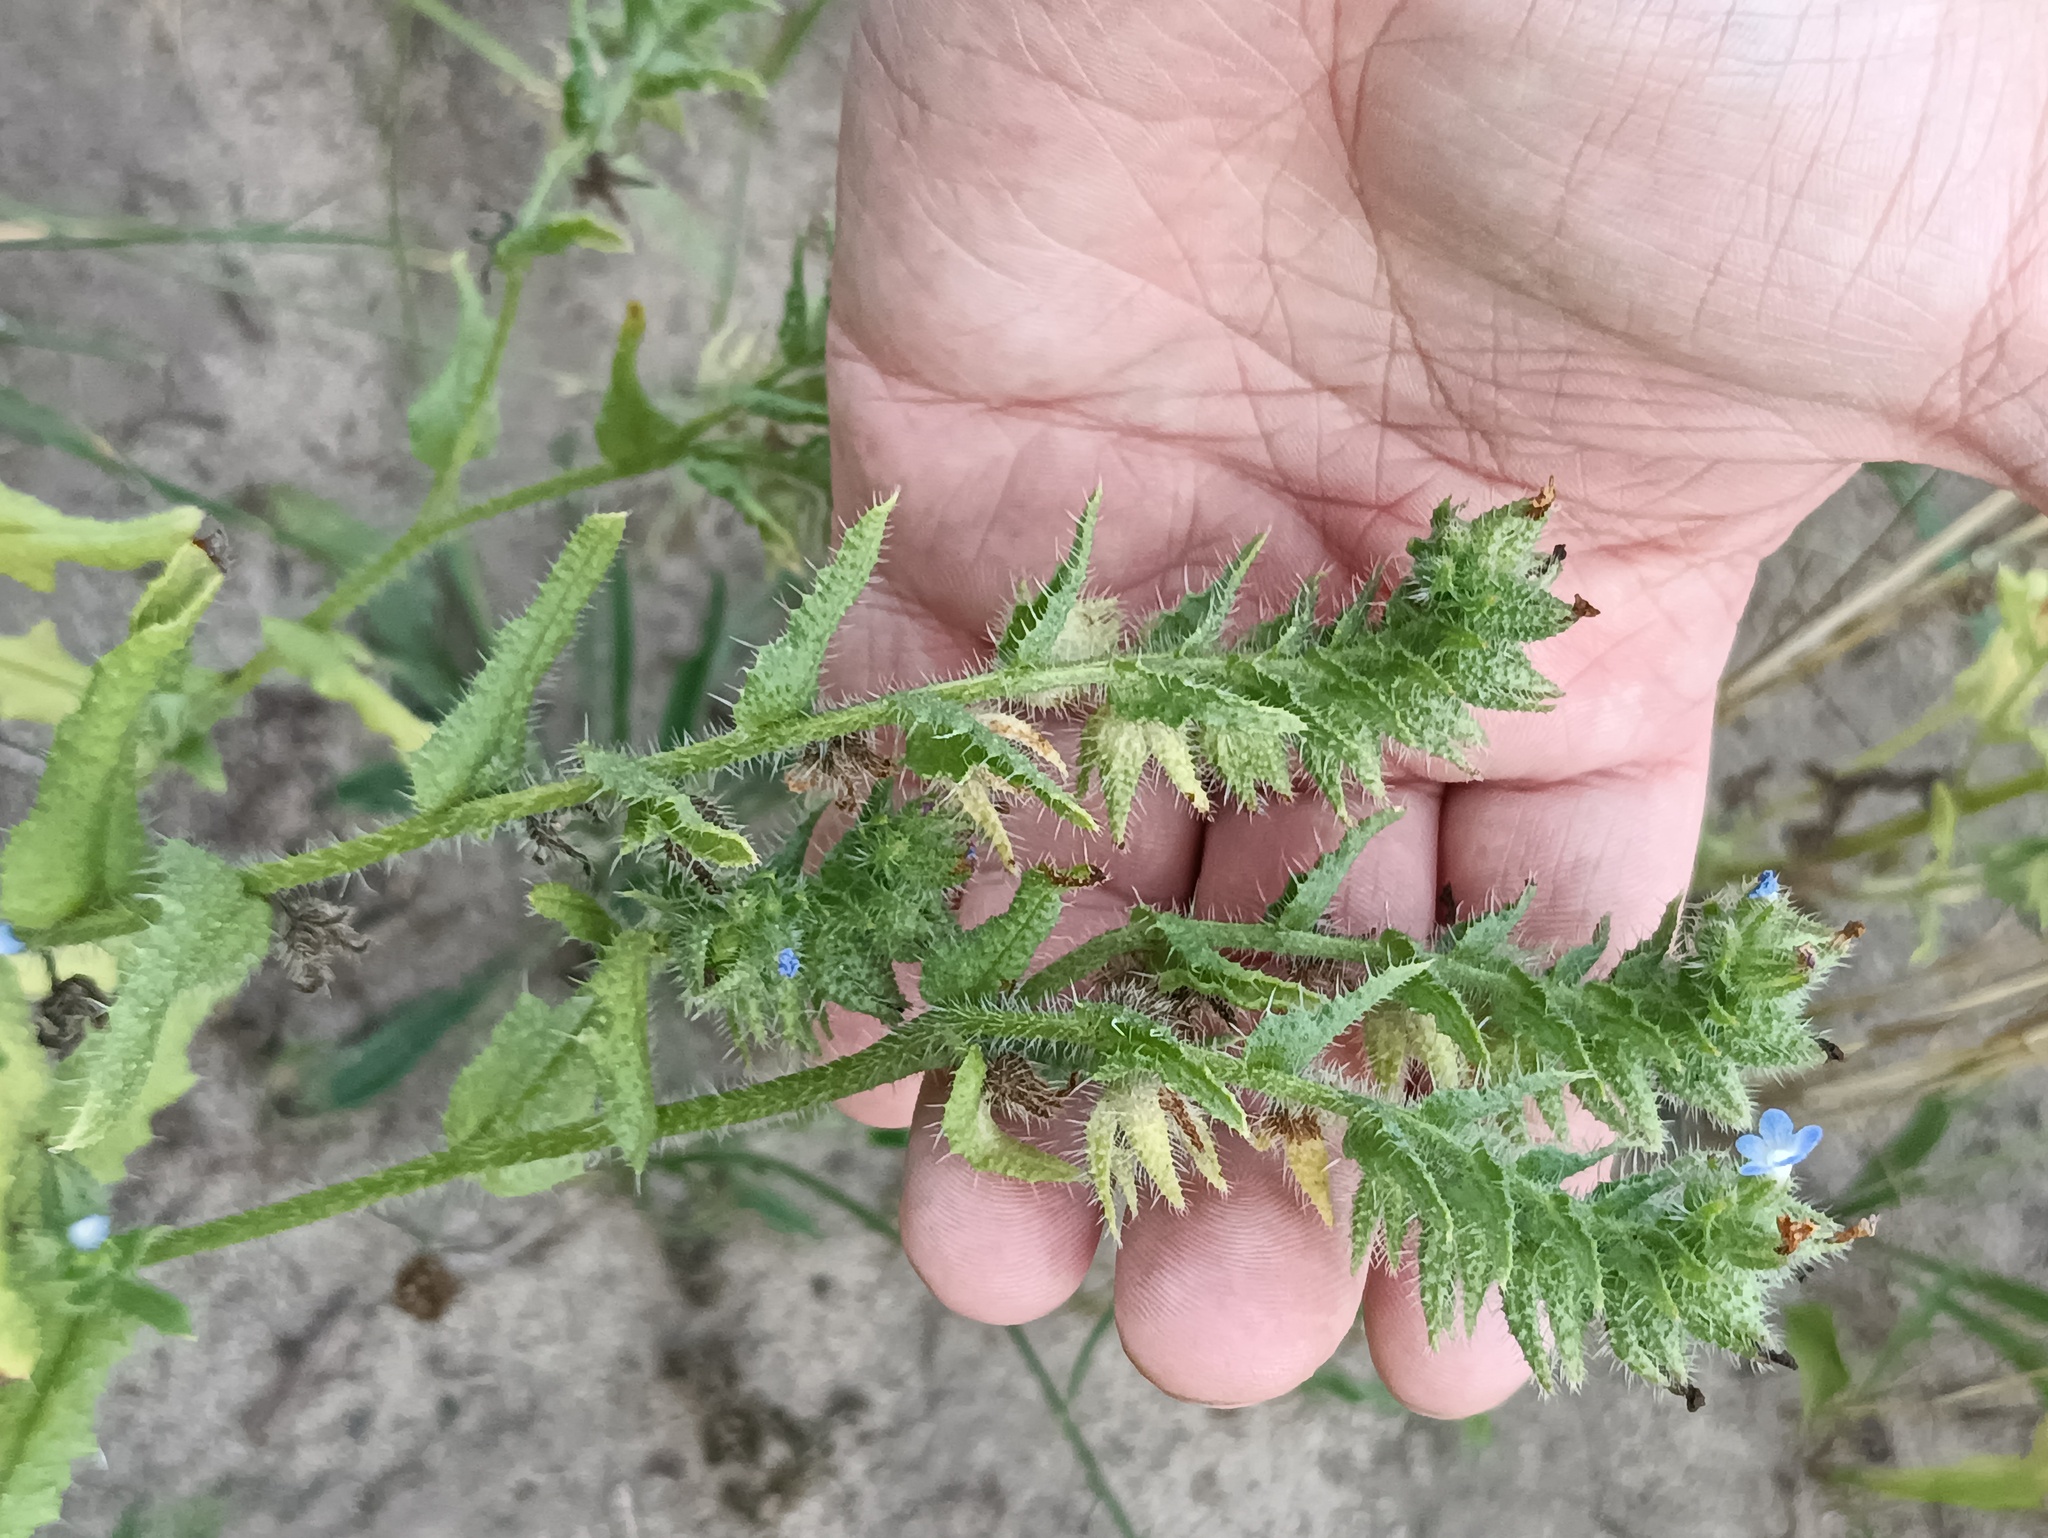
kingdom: Plantae
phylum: Tracheophyta
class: Magnoliopsida
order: Boraginales
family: Boraginaceae
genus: Lycopsis
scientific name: Lycopsis arvensis
